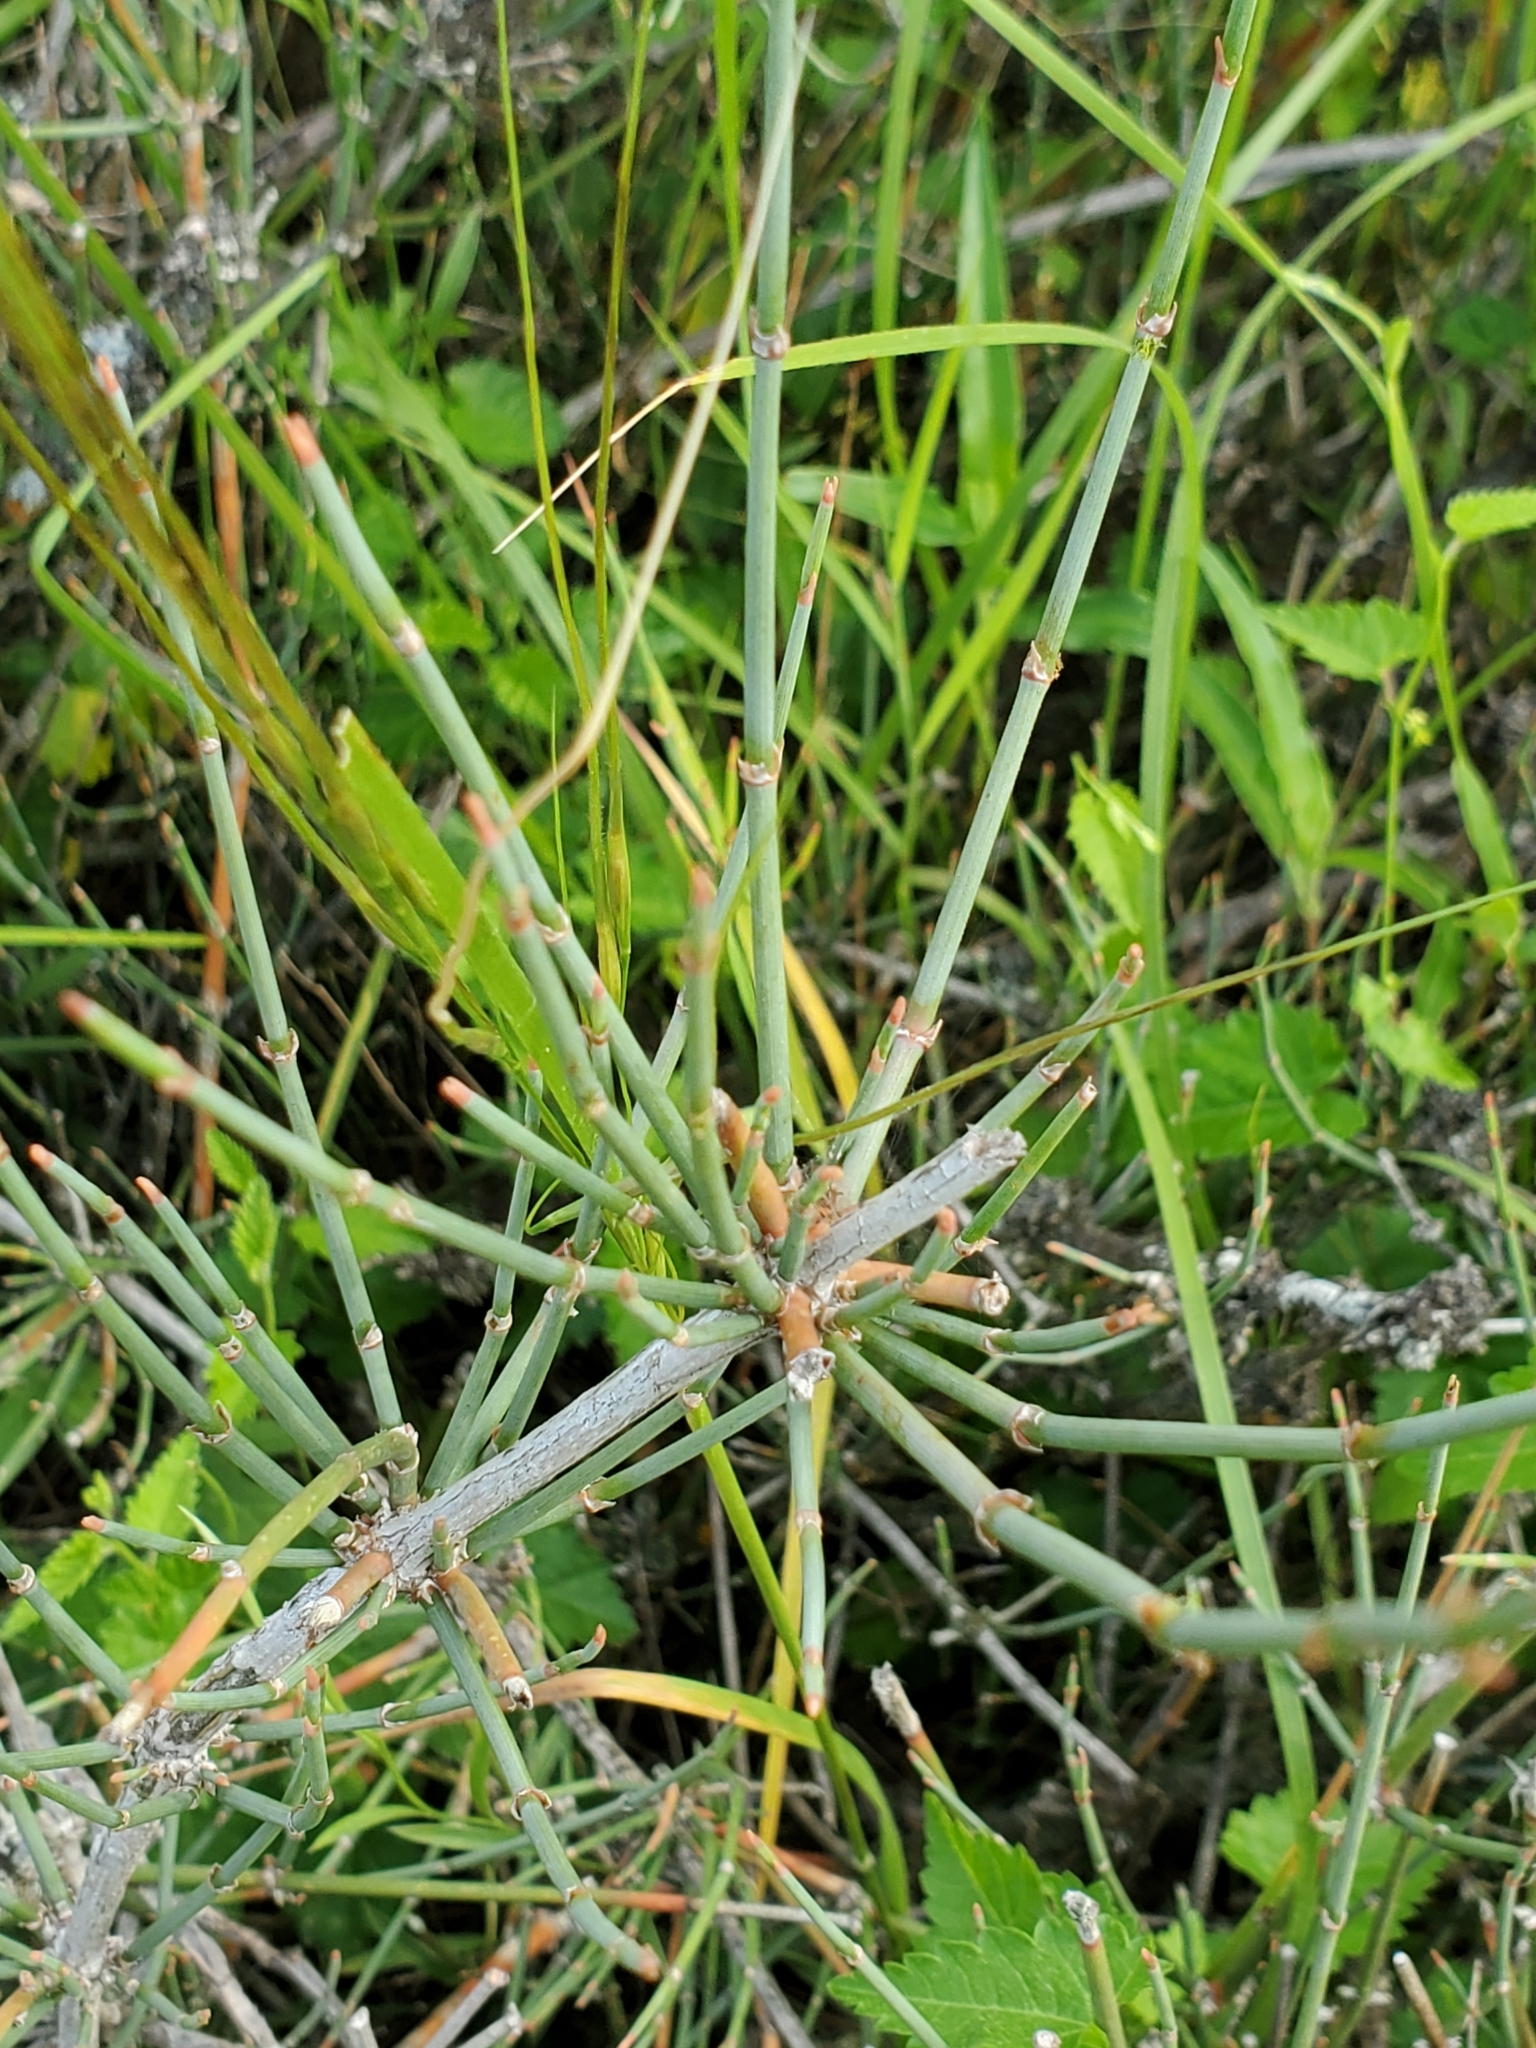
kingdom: Plantae
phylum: Tracheophyta
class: Gnetopsida
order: Ephedrales
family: Ephedraceae
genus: Ephedra
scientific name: Ephedra antisyphilitica
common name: Clipweed
